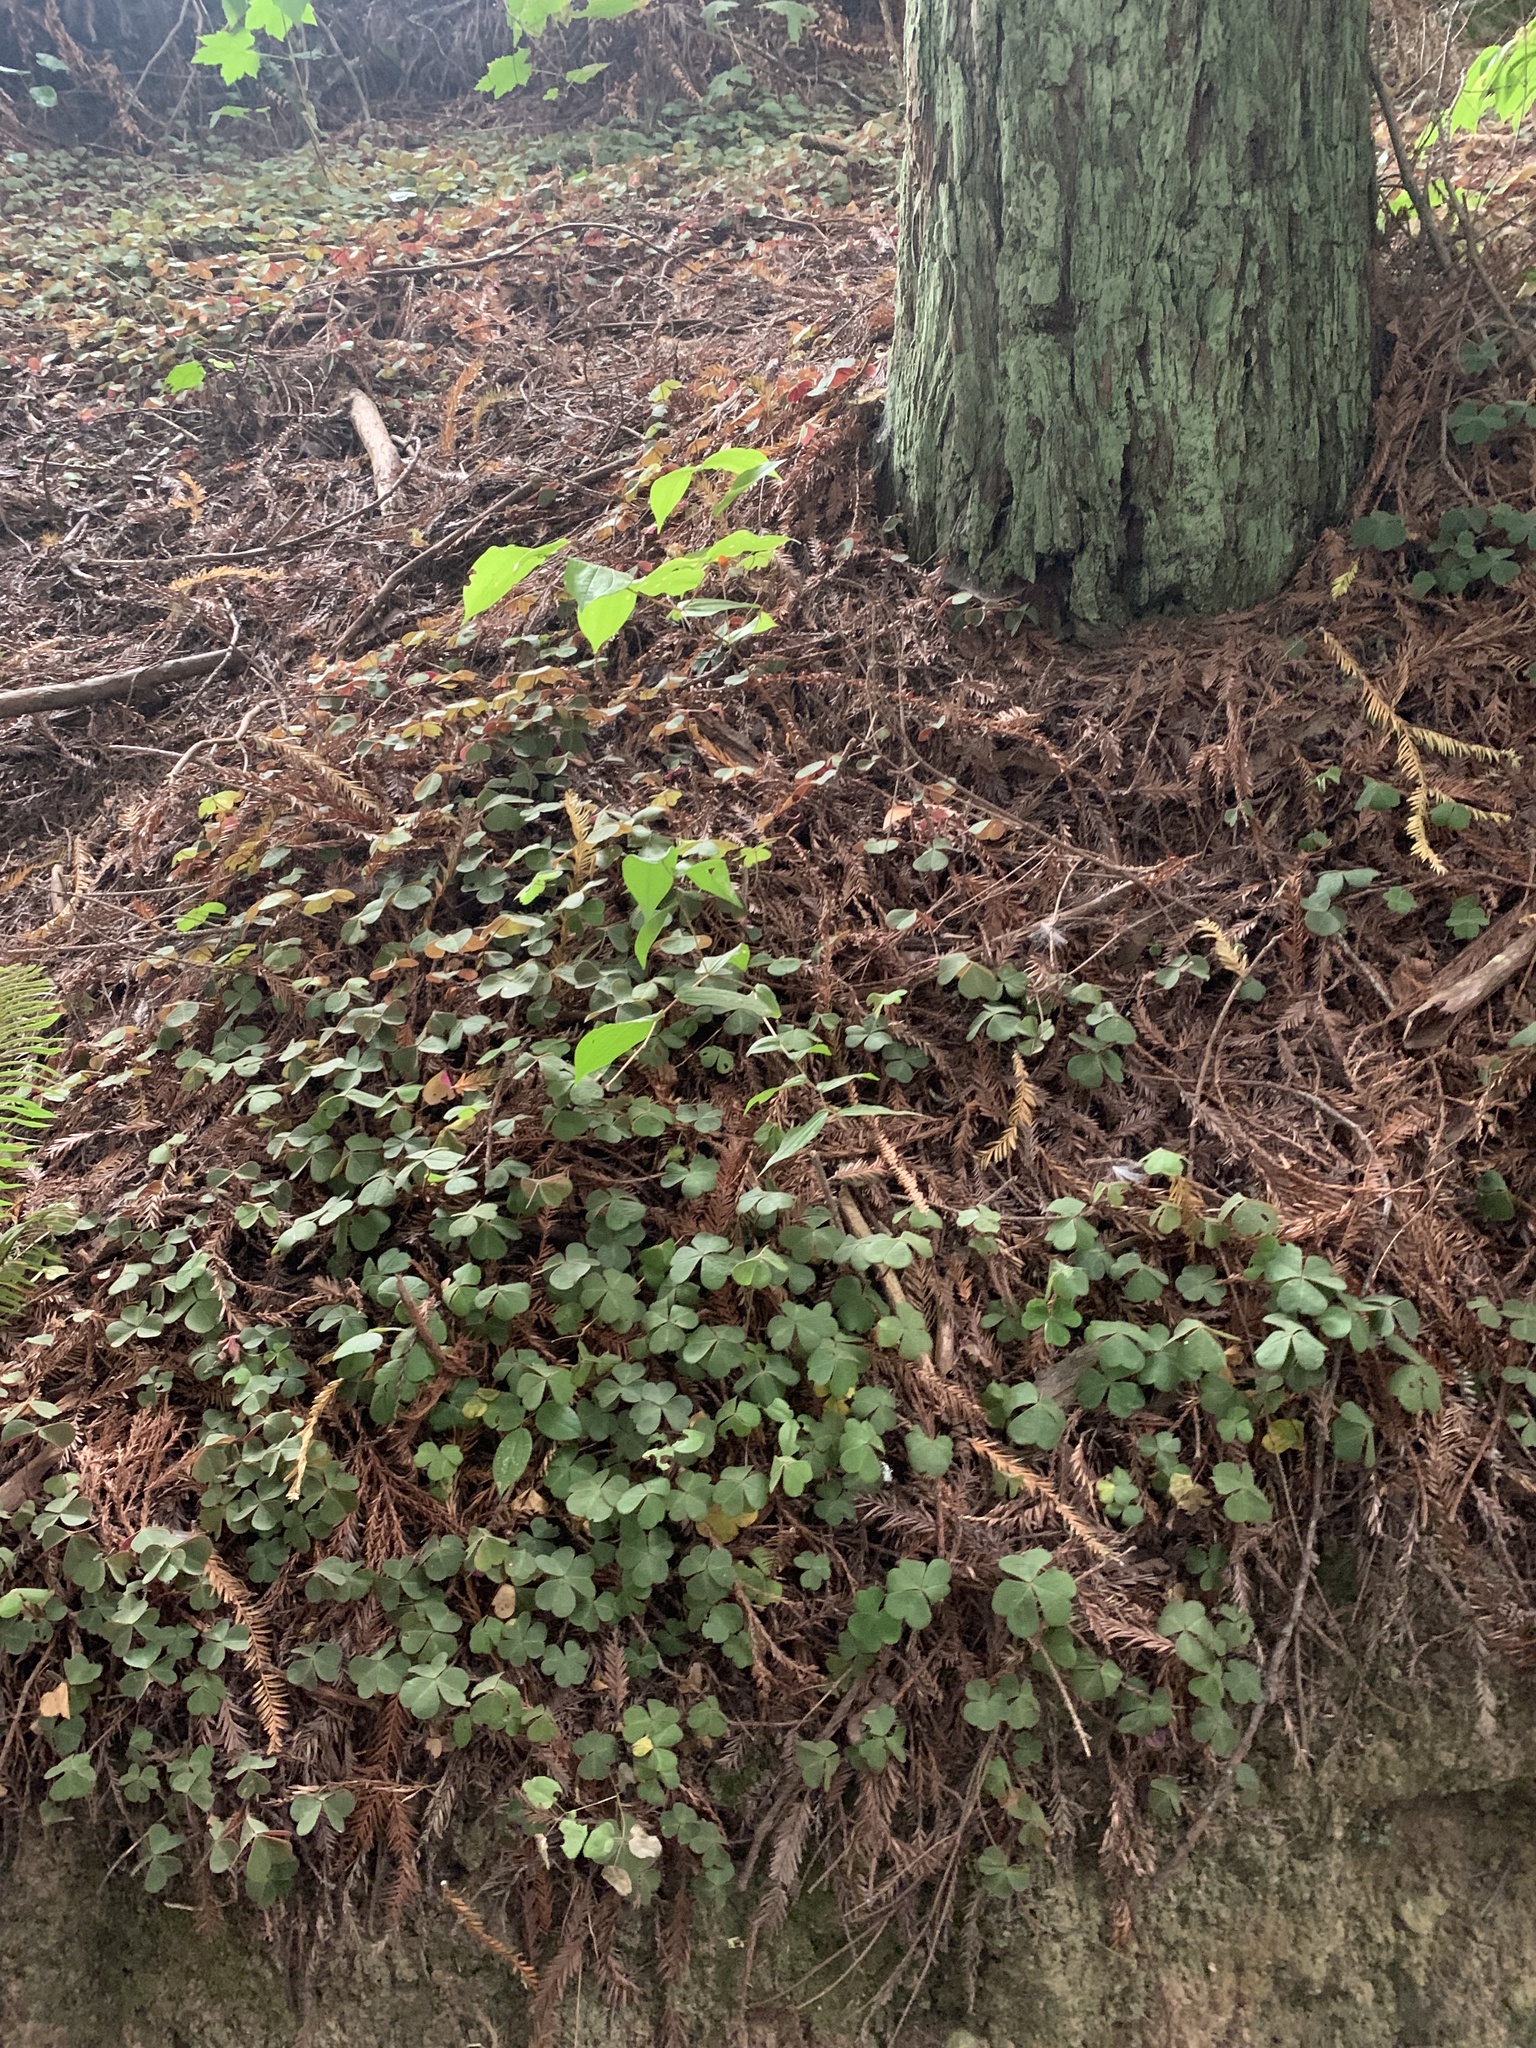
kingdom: Plantae
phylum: Tracheophyta
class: Magnoliopsida
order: Oxalidales
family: Oxalidaceae
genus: Oxalis
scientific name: Oxalis oregana
